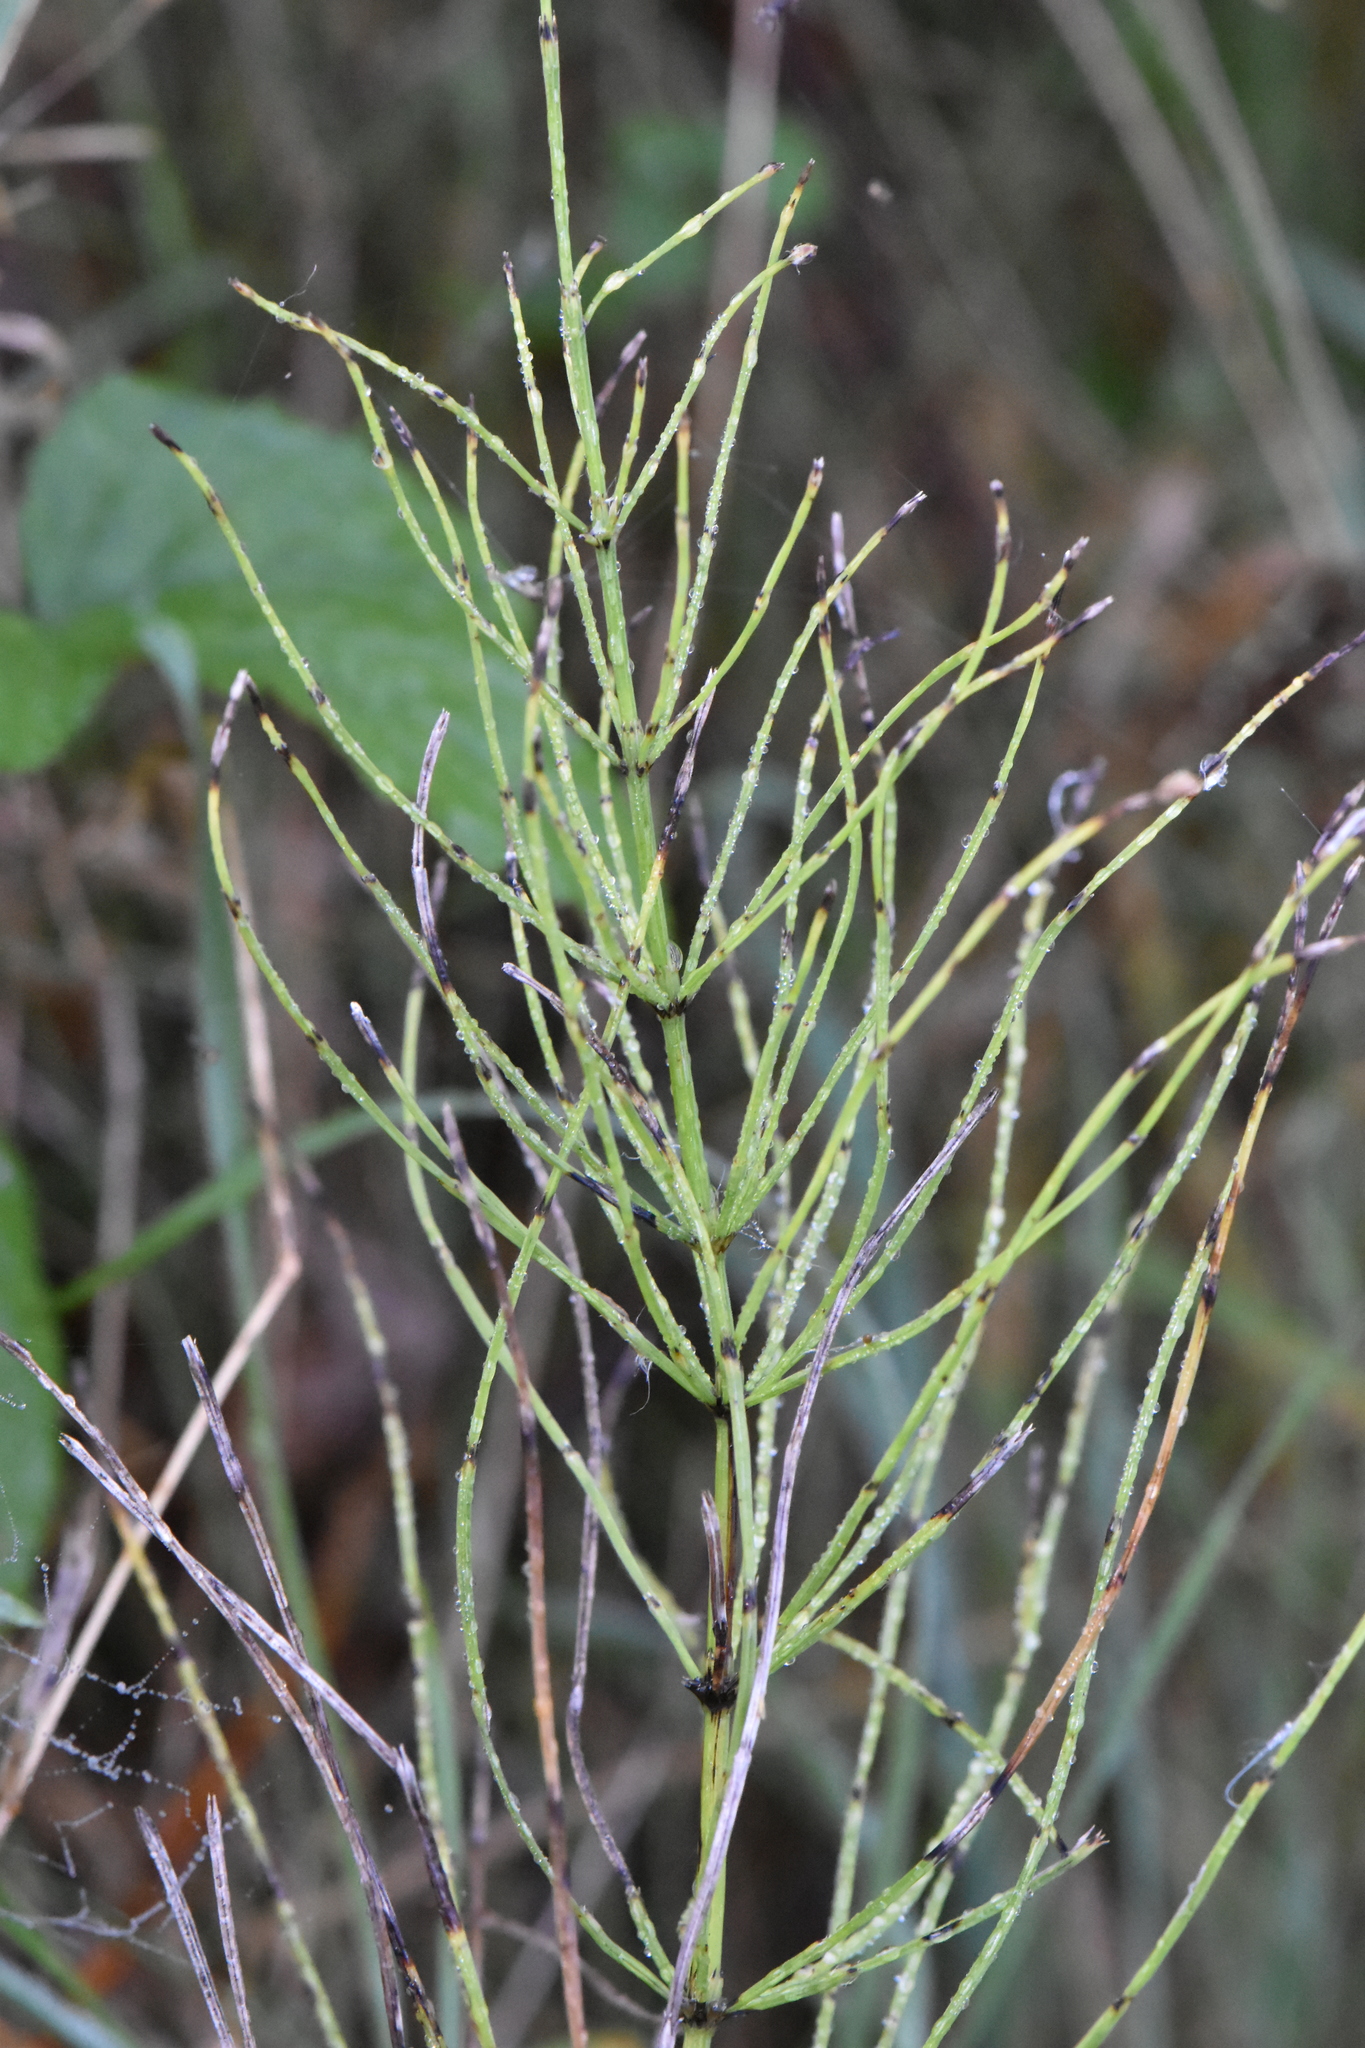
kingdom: Plantae
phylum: Tracheophyta
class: Polypodiopsida
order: Equisetales
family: Equisetaceae
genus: Equisetum
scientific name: Equisetum arvense
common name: Field horsetail
